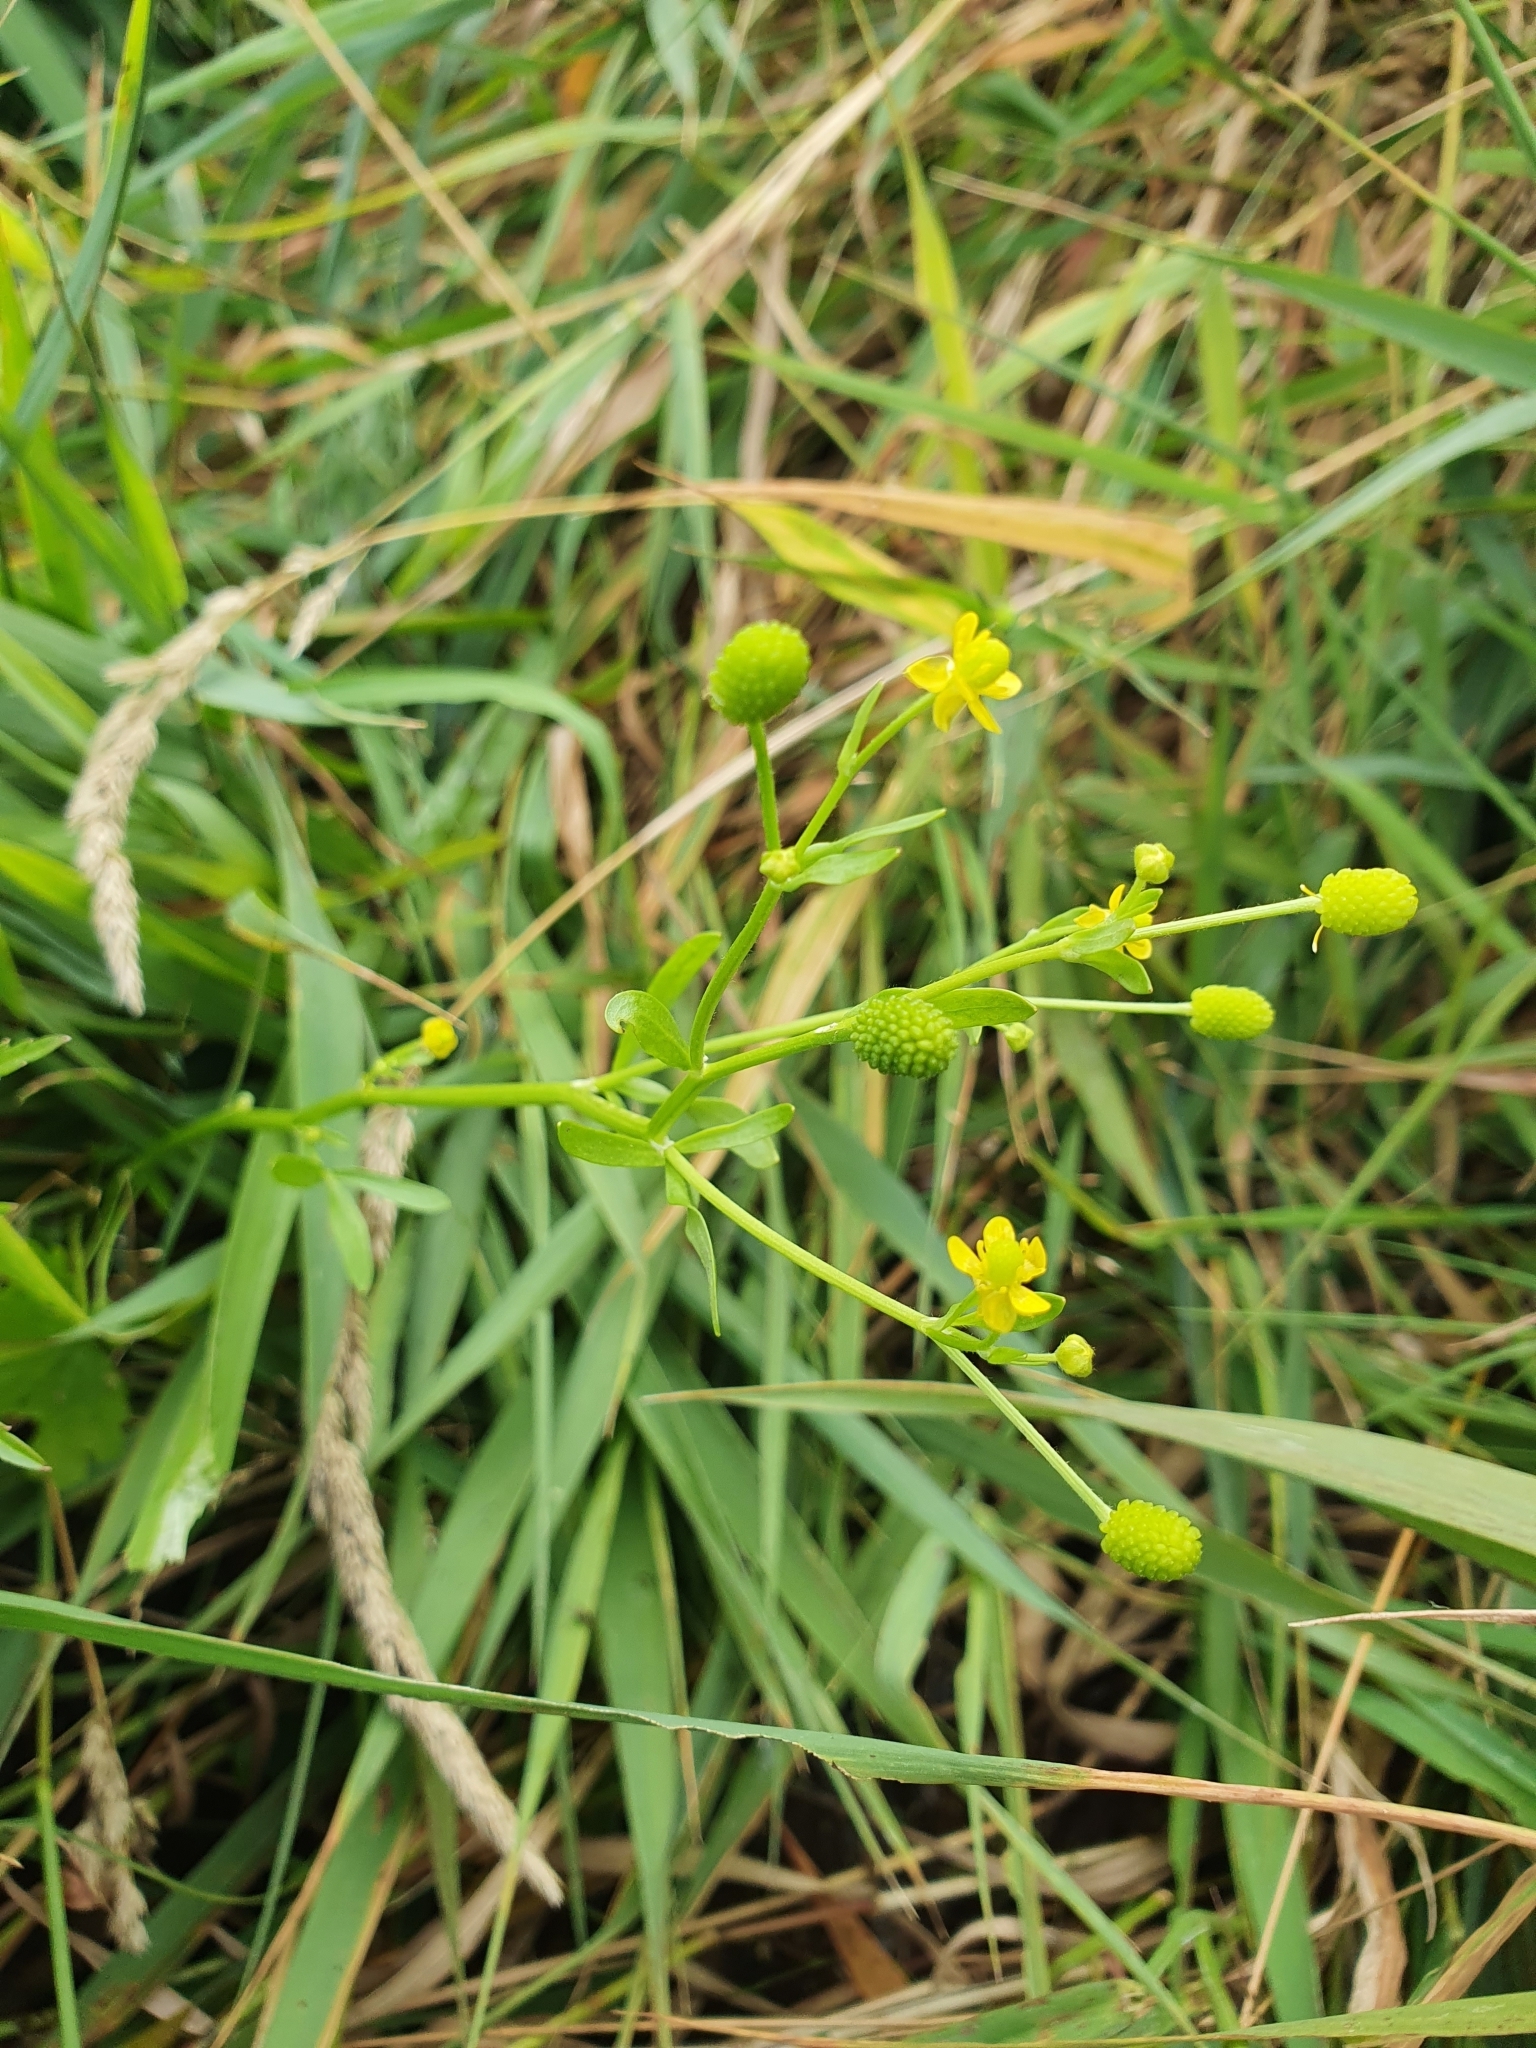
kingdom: Plantae
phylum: Tracheophyta
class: Magnoliopsida
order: Ranunculales
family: Ranunculaceae
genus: Ranunculus
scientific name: Ranunculus sceleratus
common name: Celery-leaved buttercup
